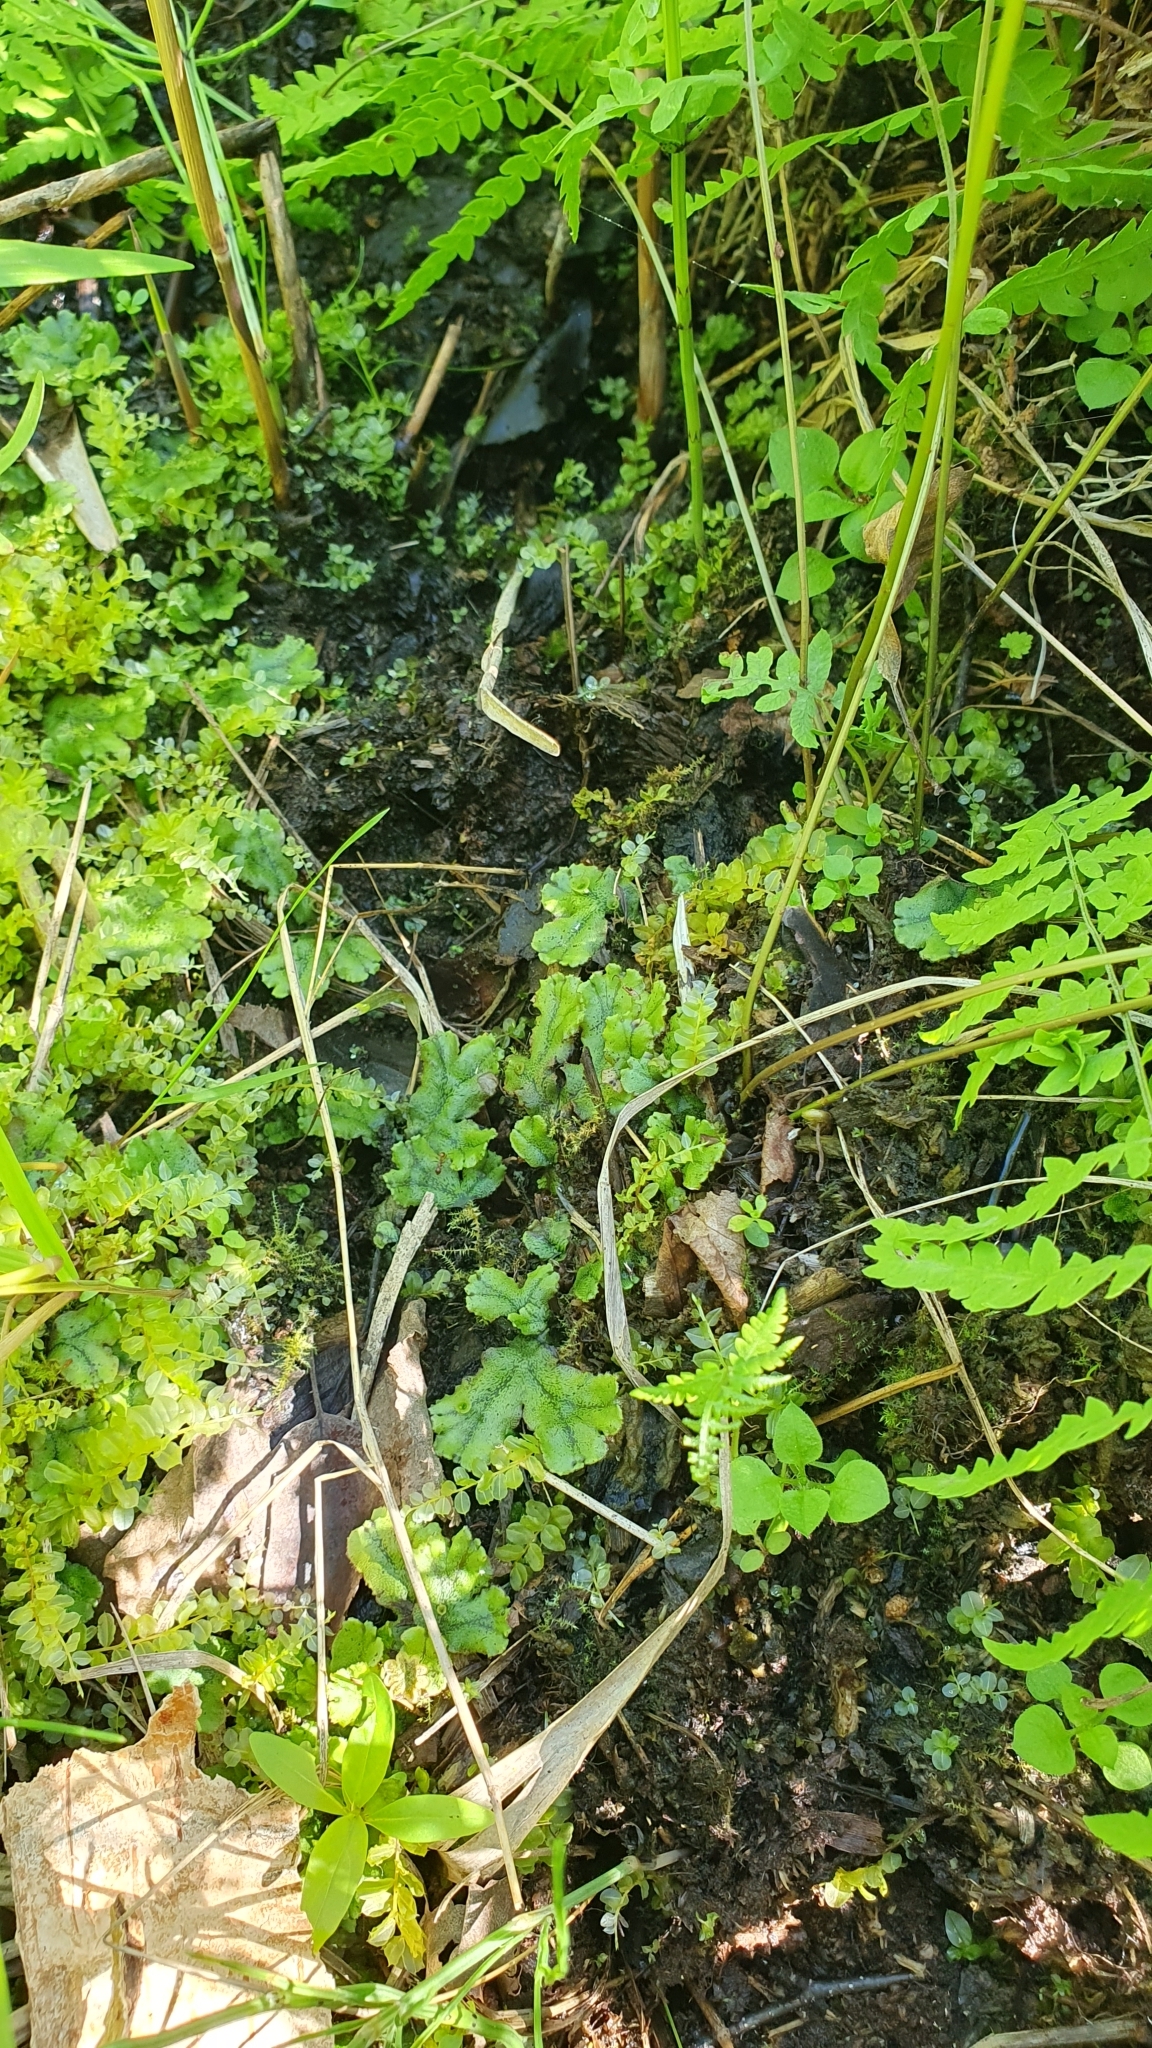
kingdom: Plantae
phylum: Marchantiophyta
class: Marchantiopsida
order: Marchantiales
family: Marchantiaceae
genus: Marchantia
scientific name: Marchantia polymorpha
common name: Common liverwort
